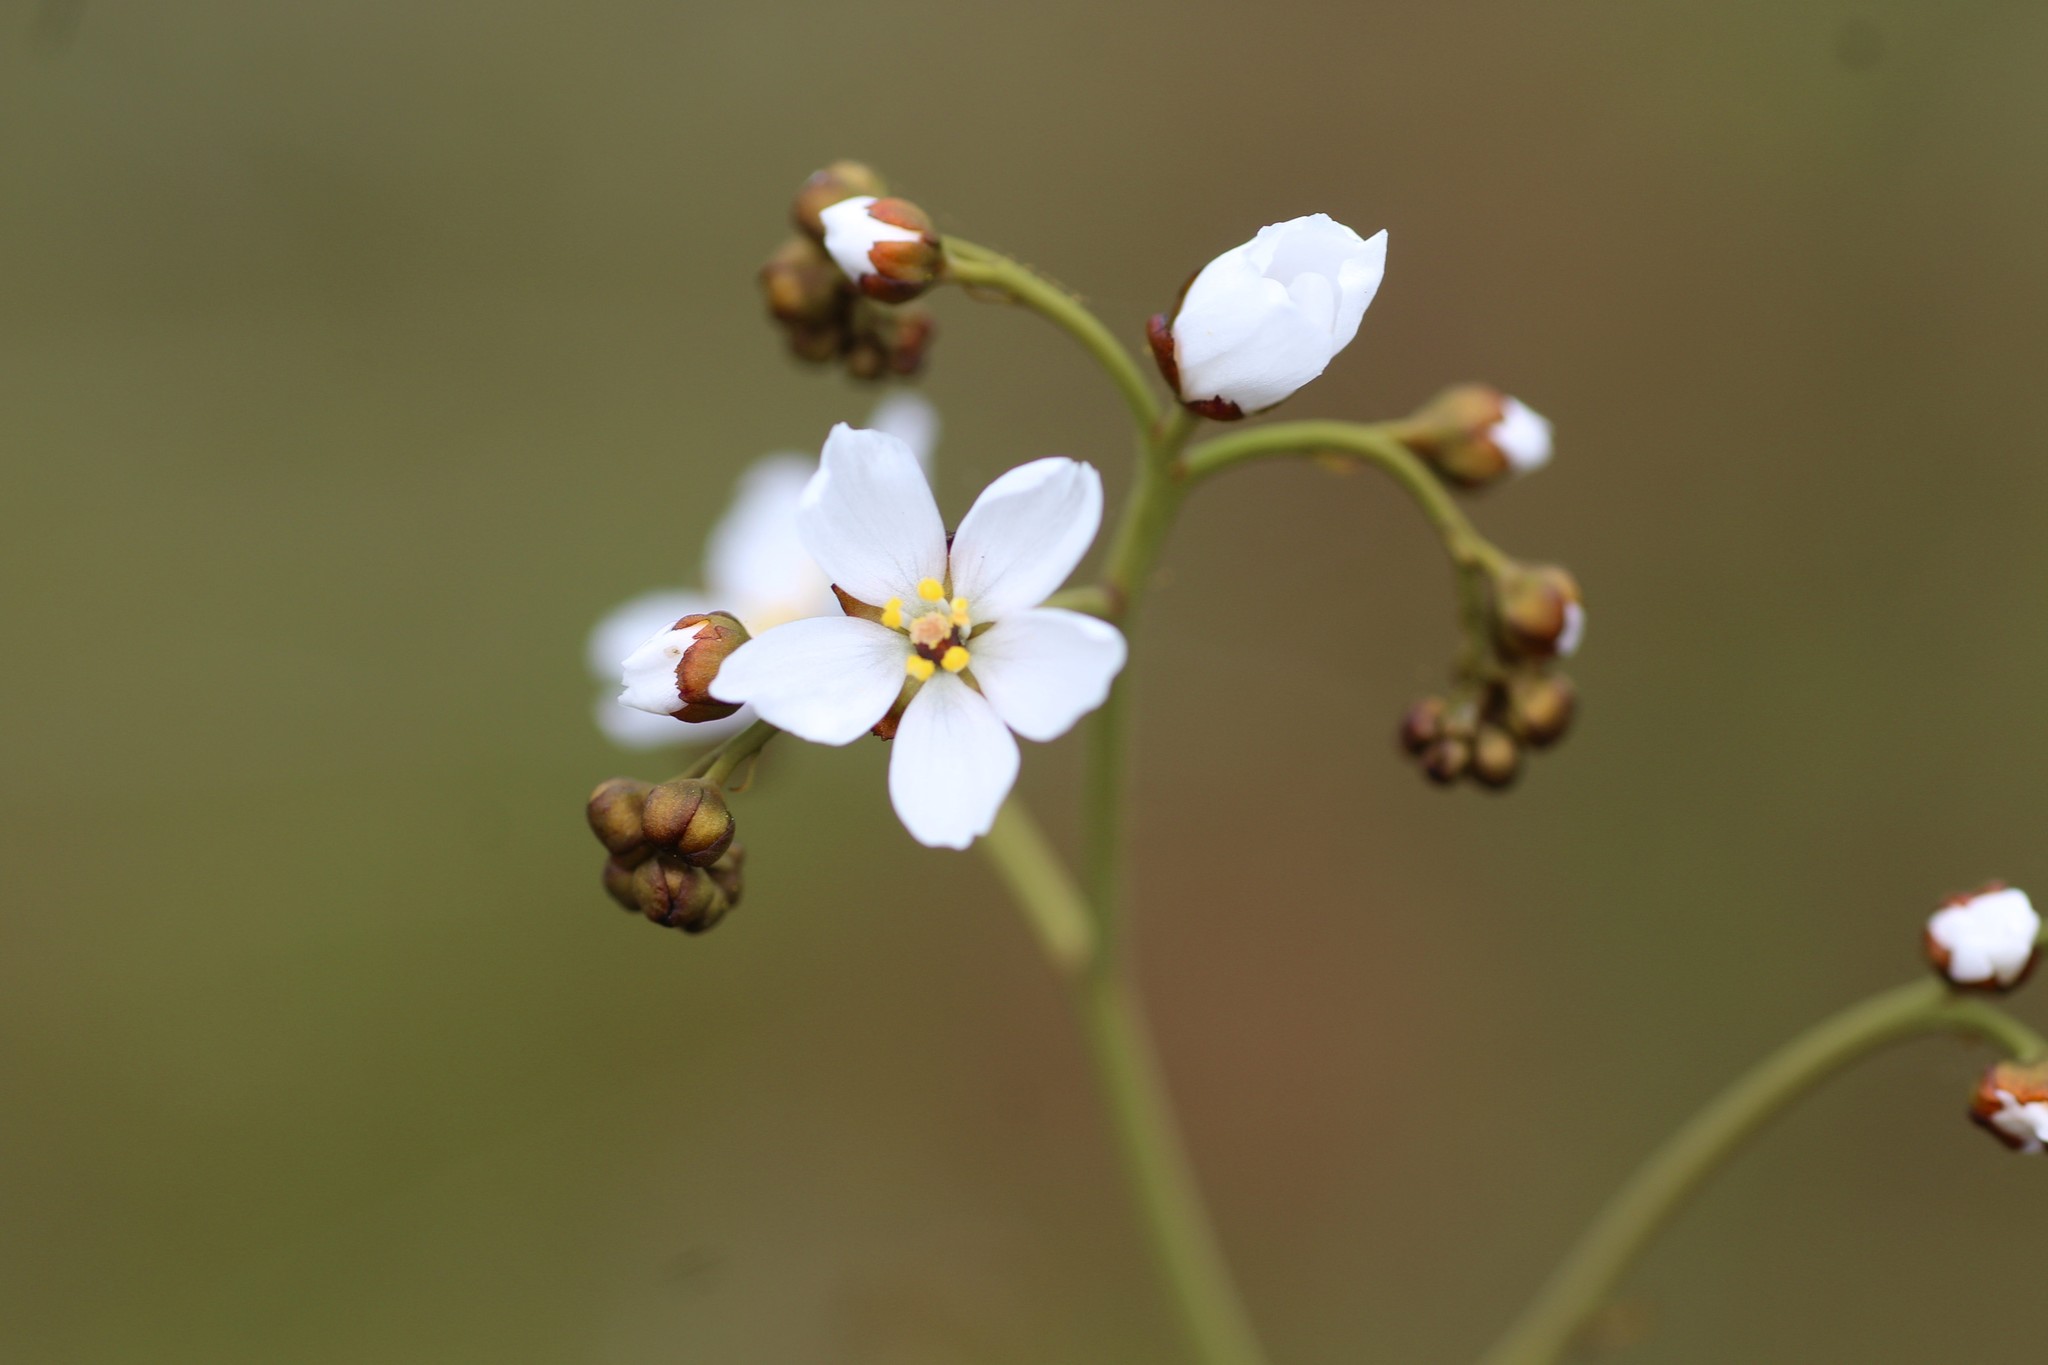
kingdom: Plantae
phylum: Tracheophyta
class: Magnoliopsida
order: Caryophyllales
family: Droseraceae
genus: Drosera
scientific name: Drosera gigantea
